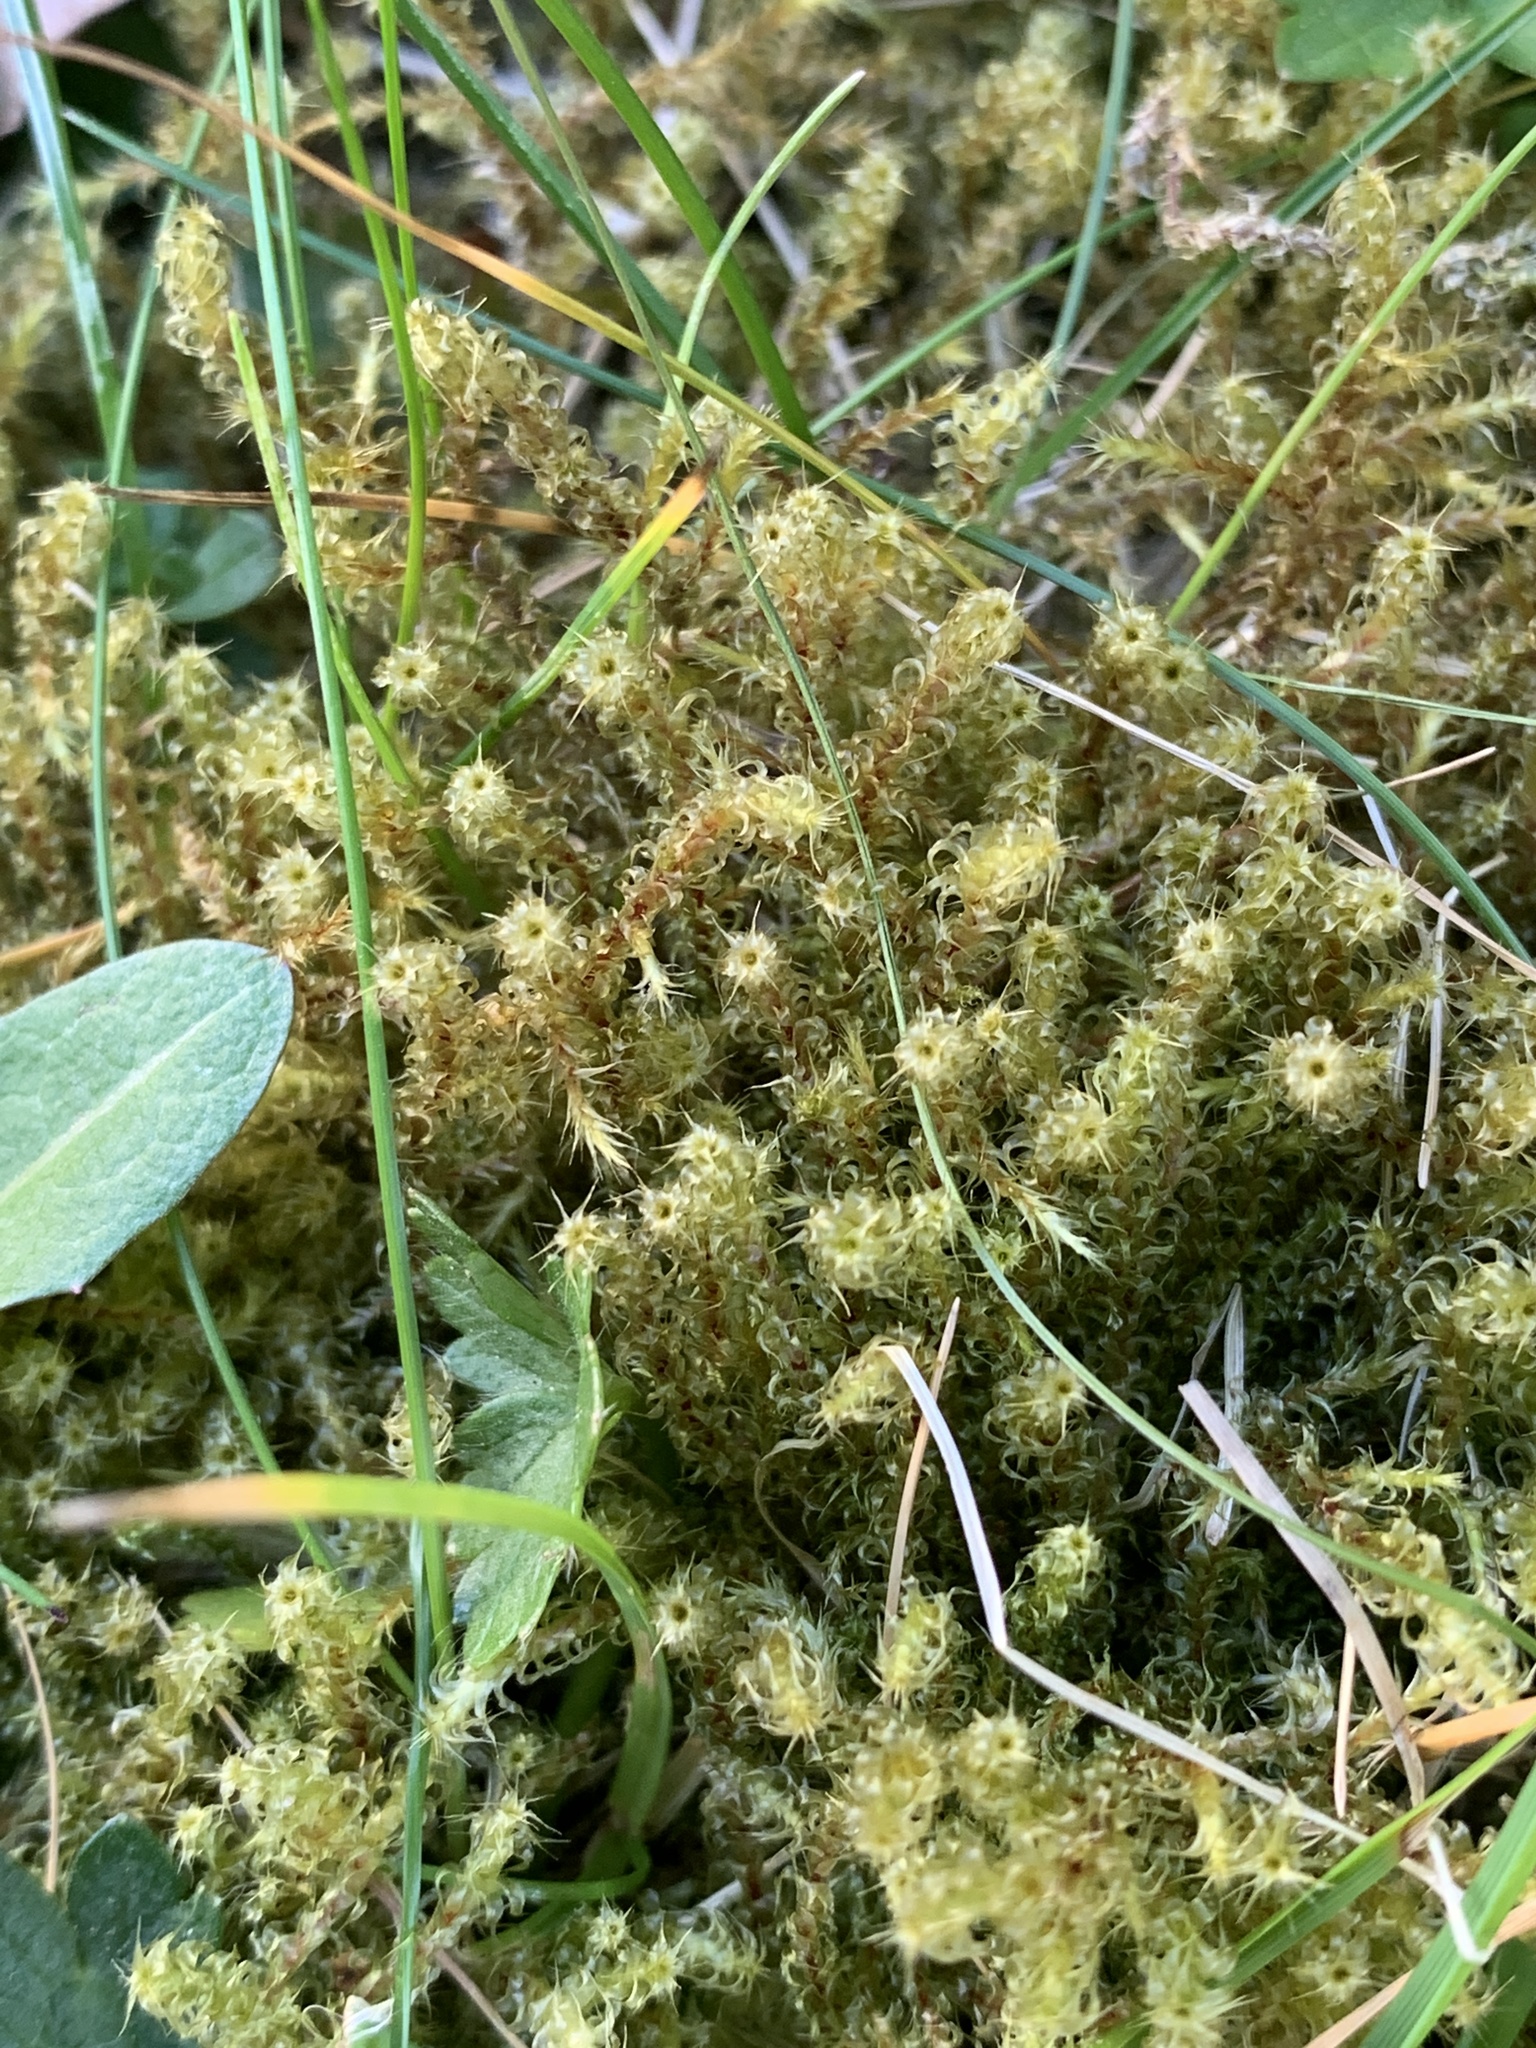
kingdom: Plantae
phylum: Bryophyta
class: Bryopsida
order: Hypnales
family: Hylocomiaceae
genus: Rhytidiadelphus
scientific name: Rhytidiadelphus squarrosus
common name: Springy turf-moss
